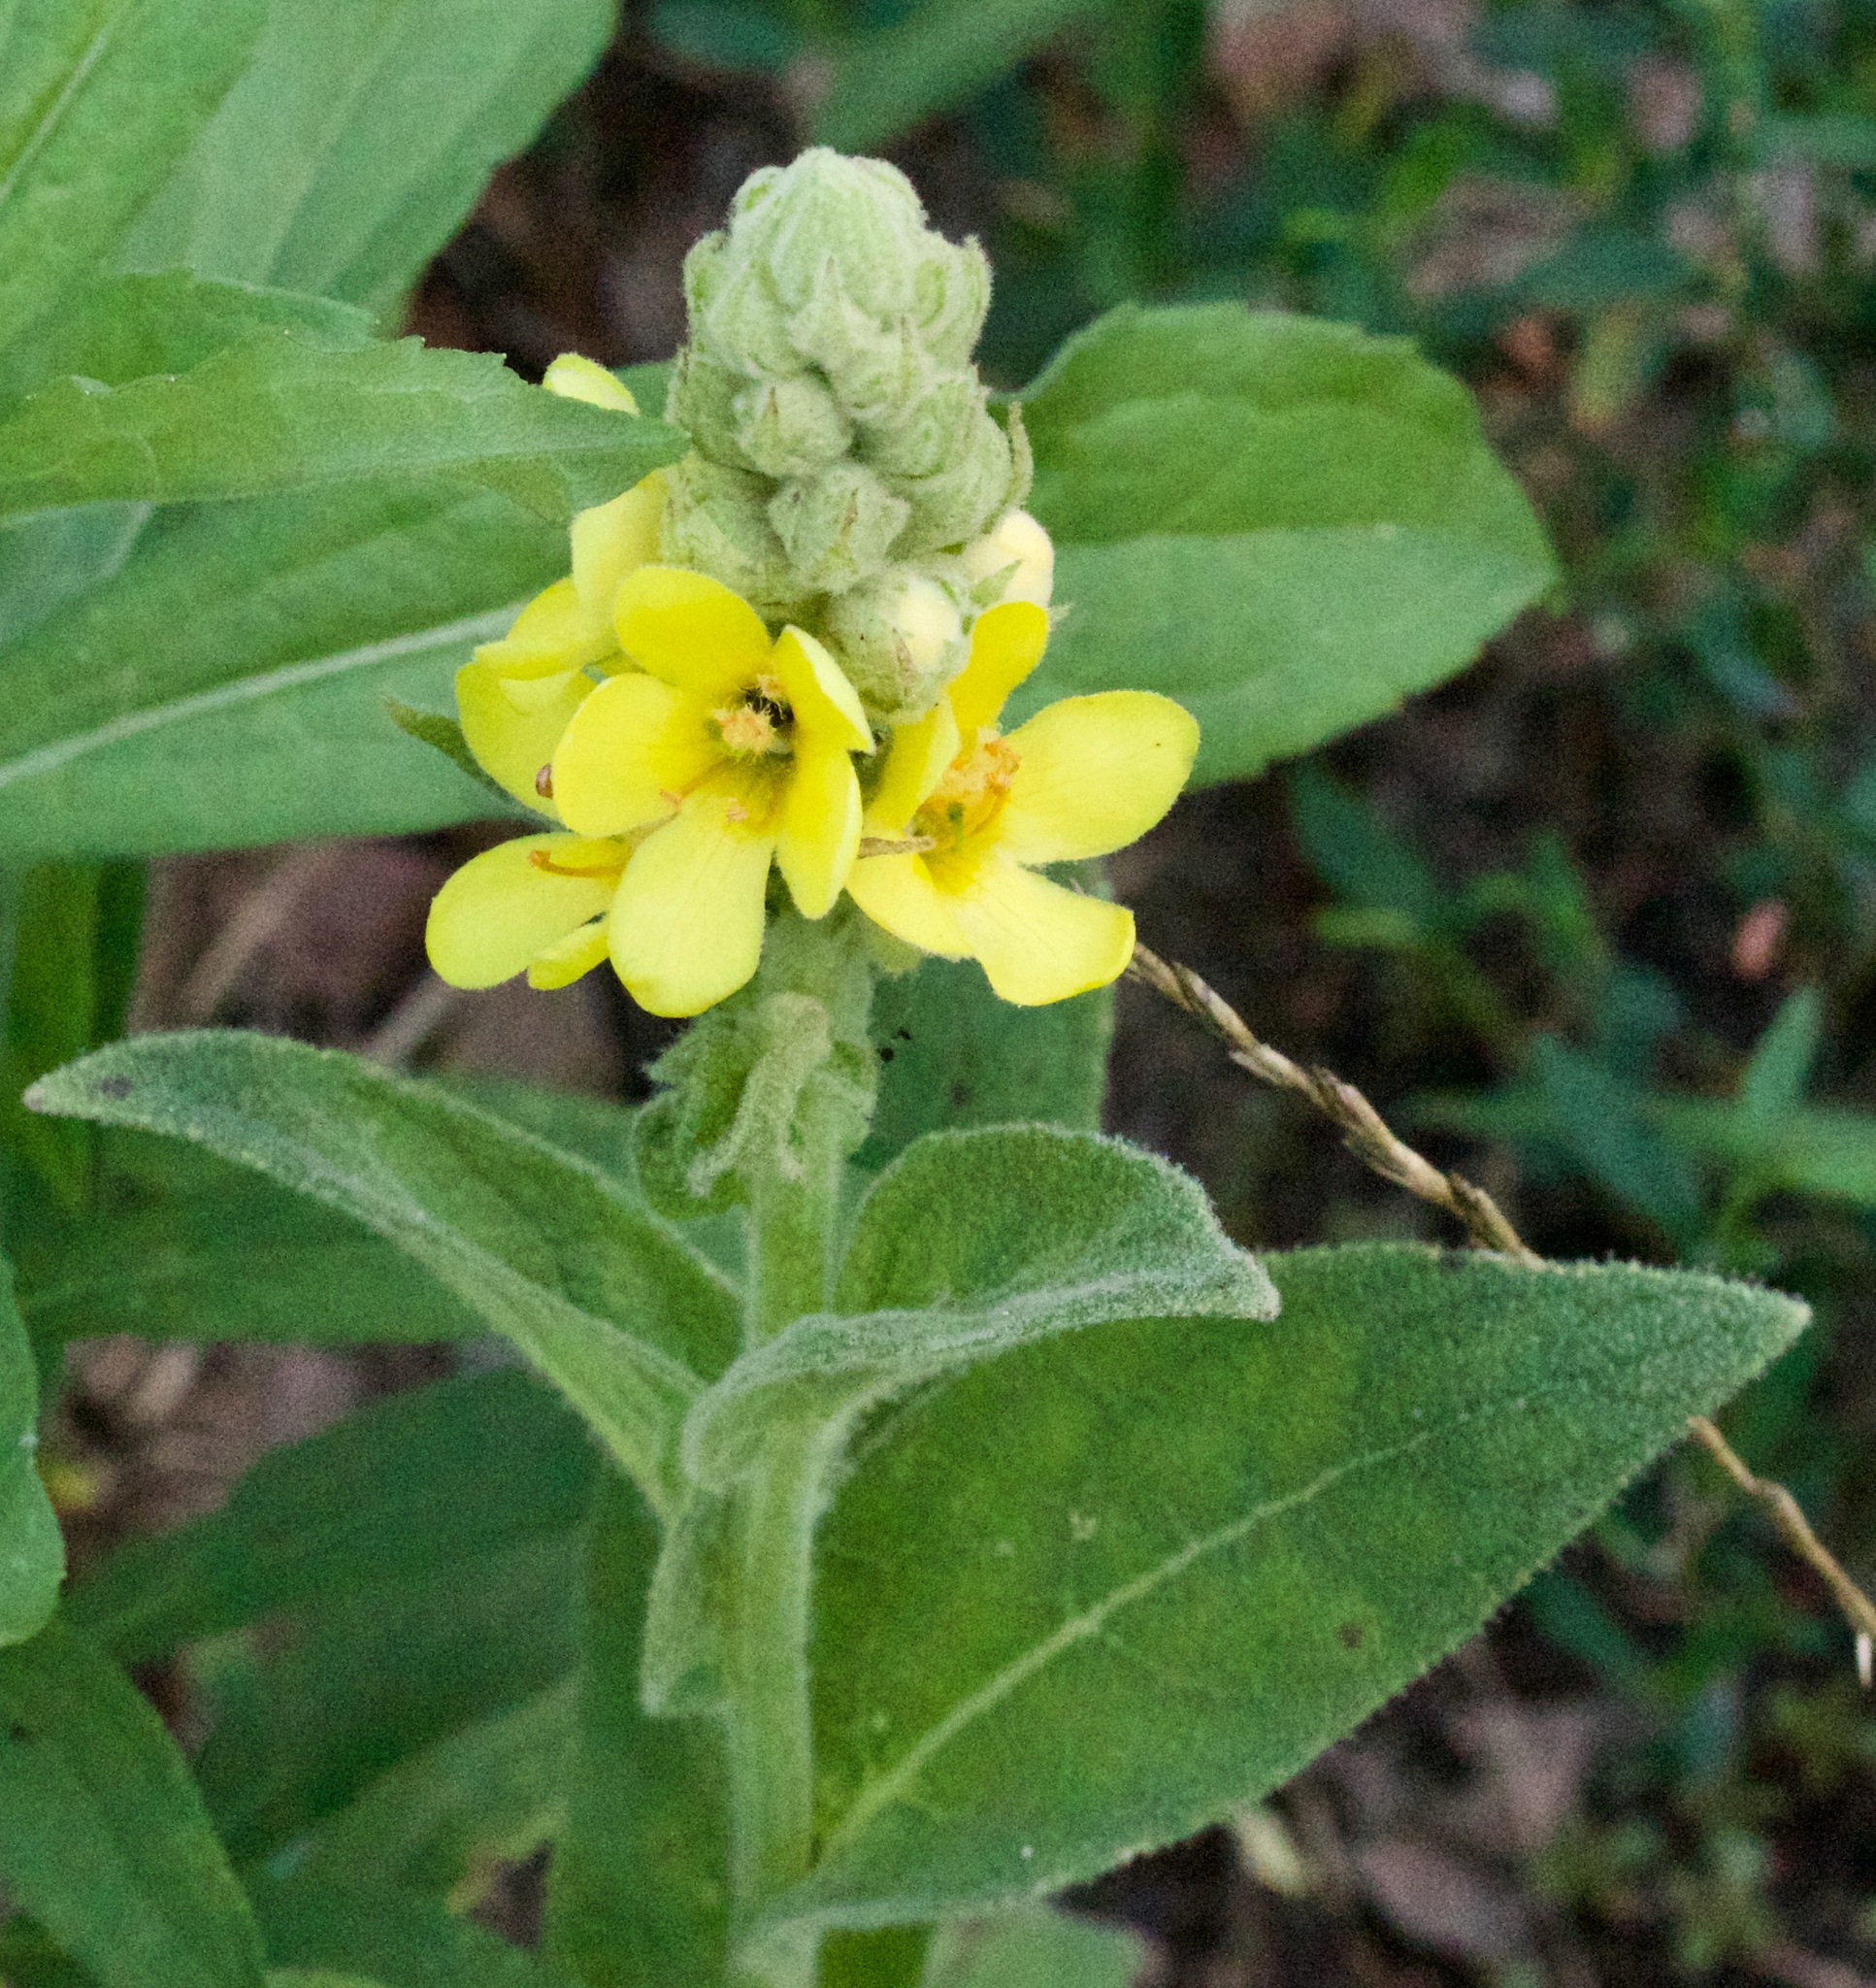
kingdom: Plantae
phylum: Tracheophyta
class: Magnoliopsida
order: Lamiales
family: Scrophulariaceae
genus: Verbascum
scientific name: Verbascum thapsus
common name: Common mullein
